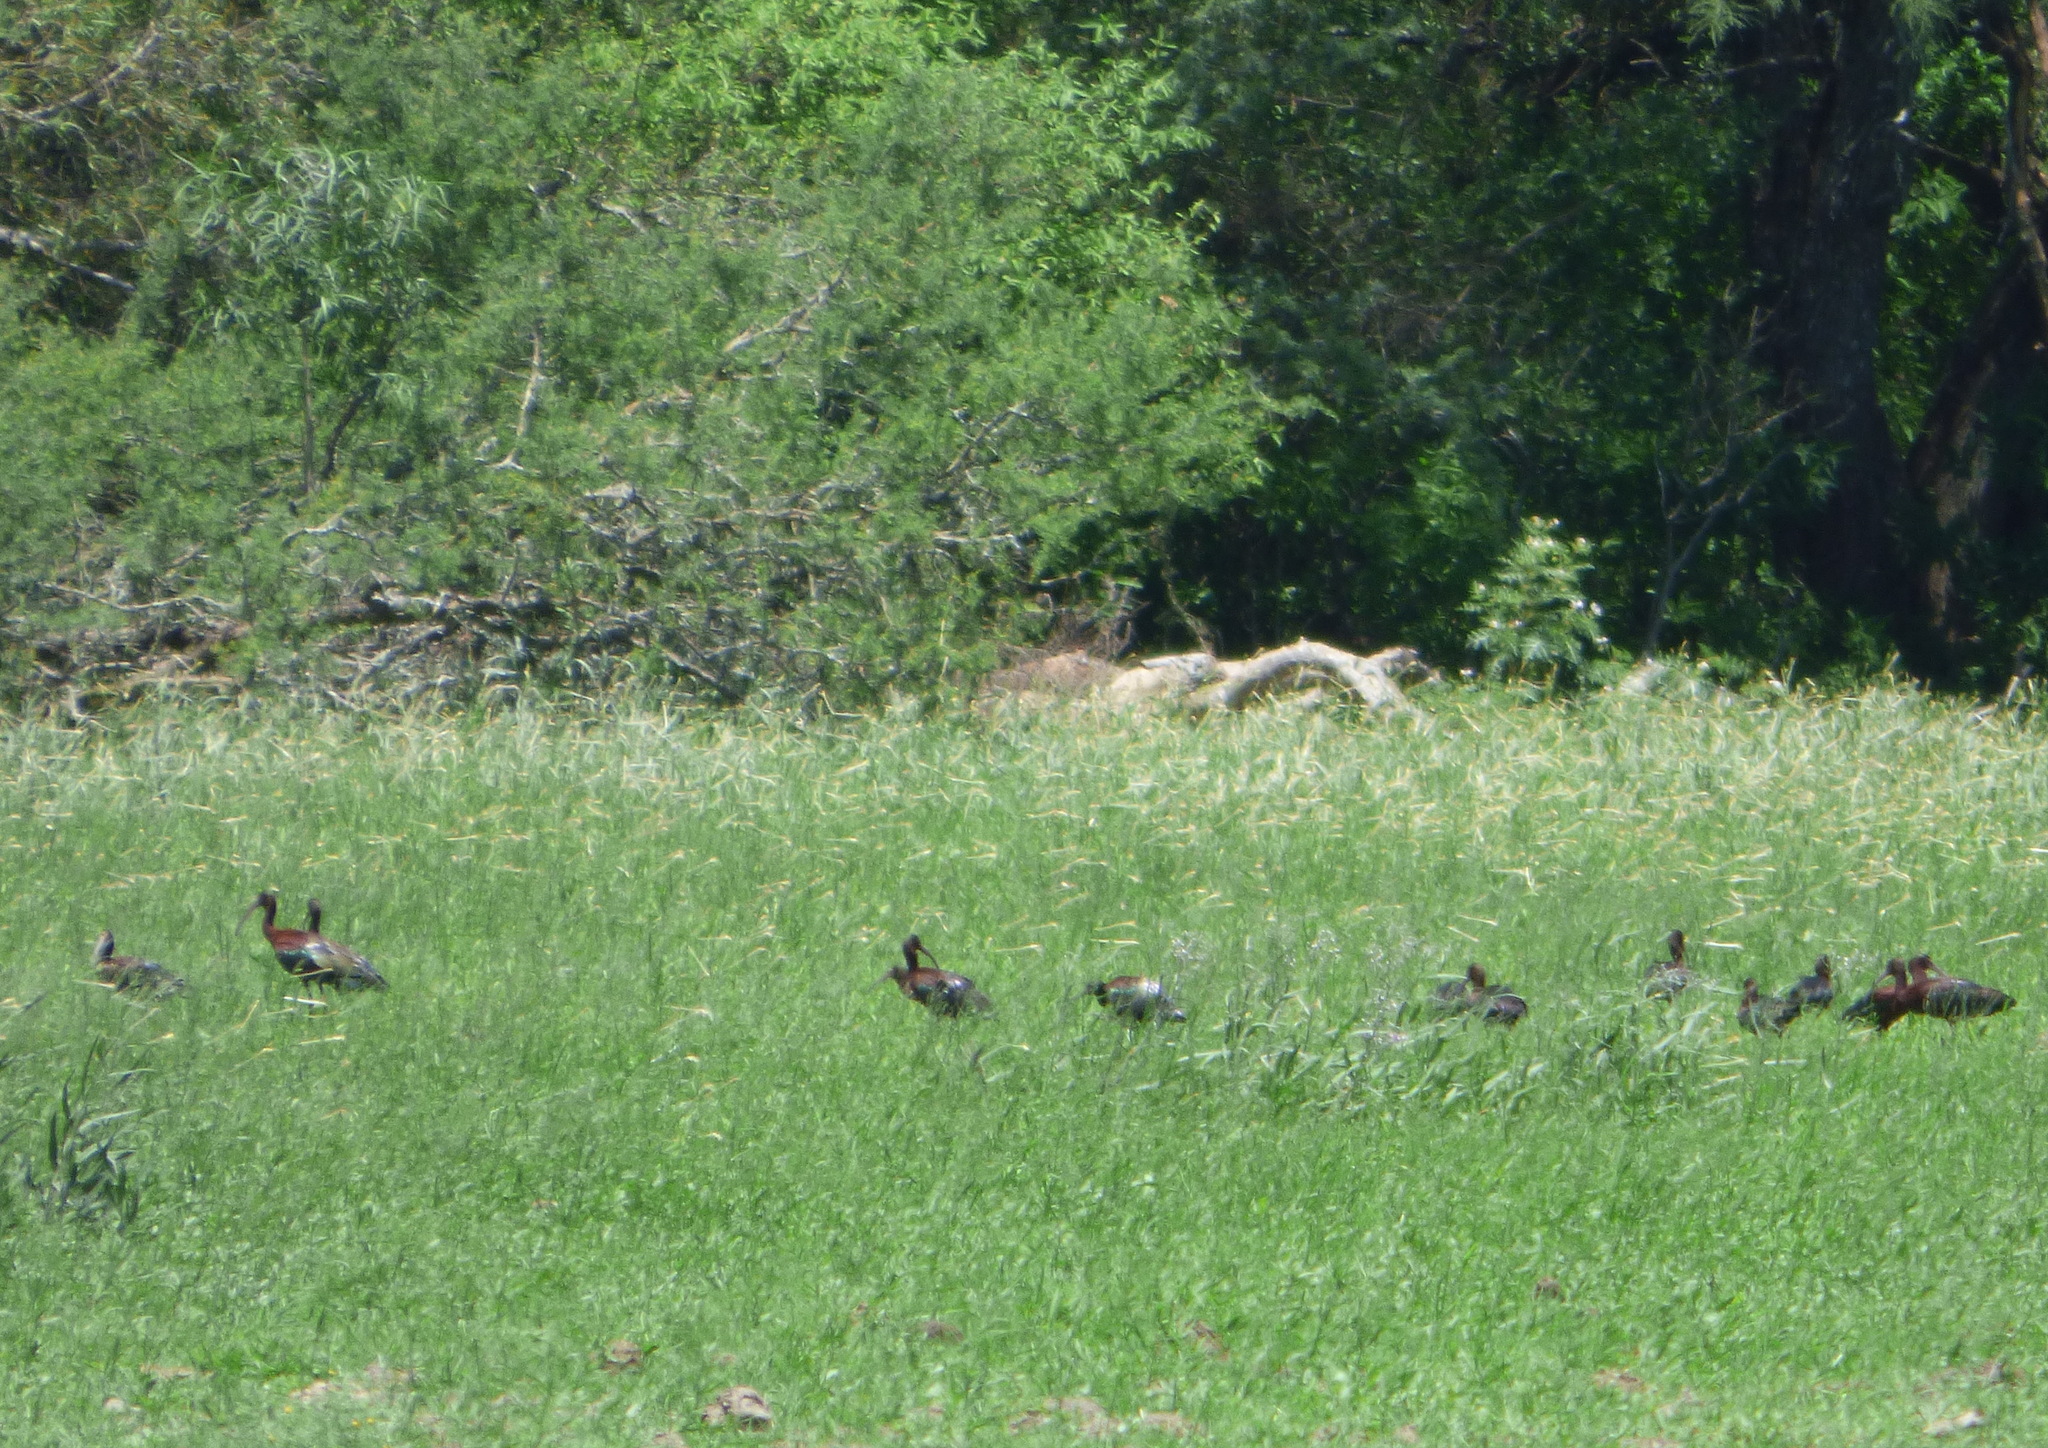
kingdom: Animalia
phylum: Chordata
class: Aves
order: Pelecaniformes
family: Threskiornithidae
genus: Plegadis
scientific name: Plegadis chihi
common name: White-faced ibis
